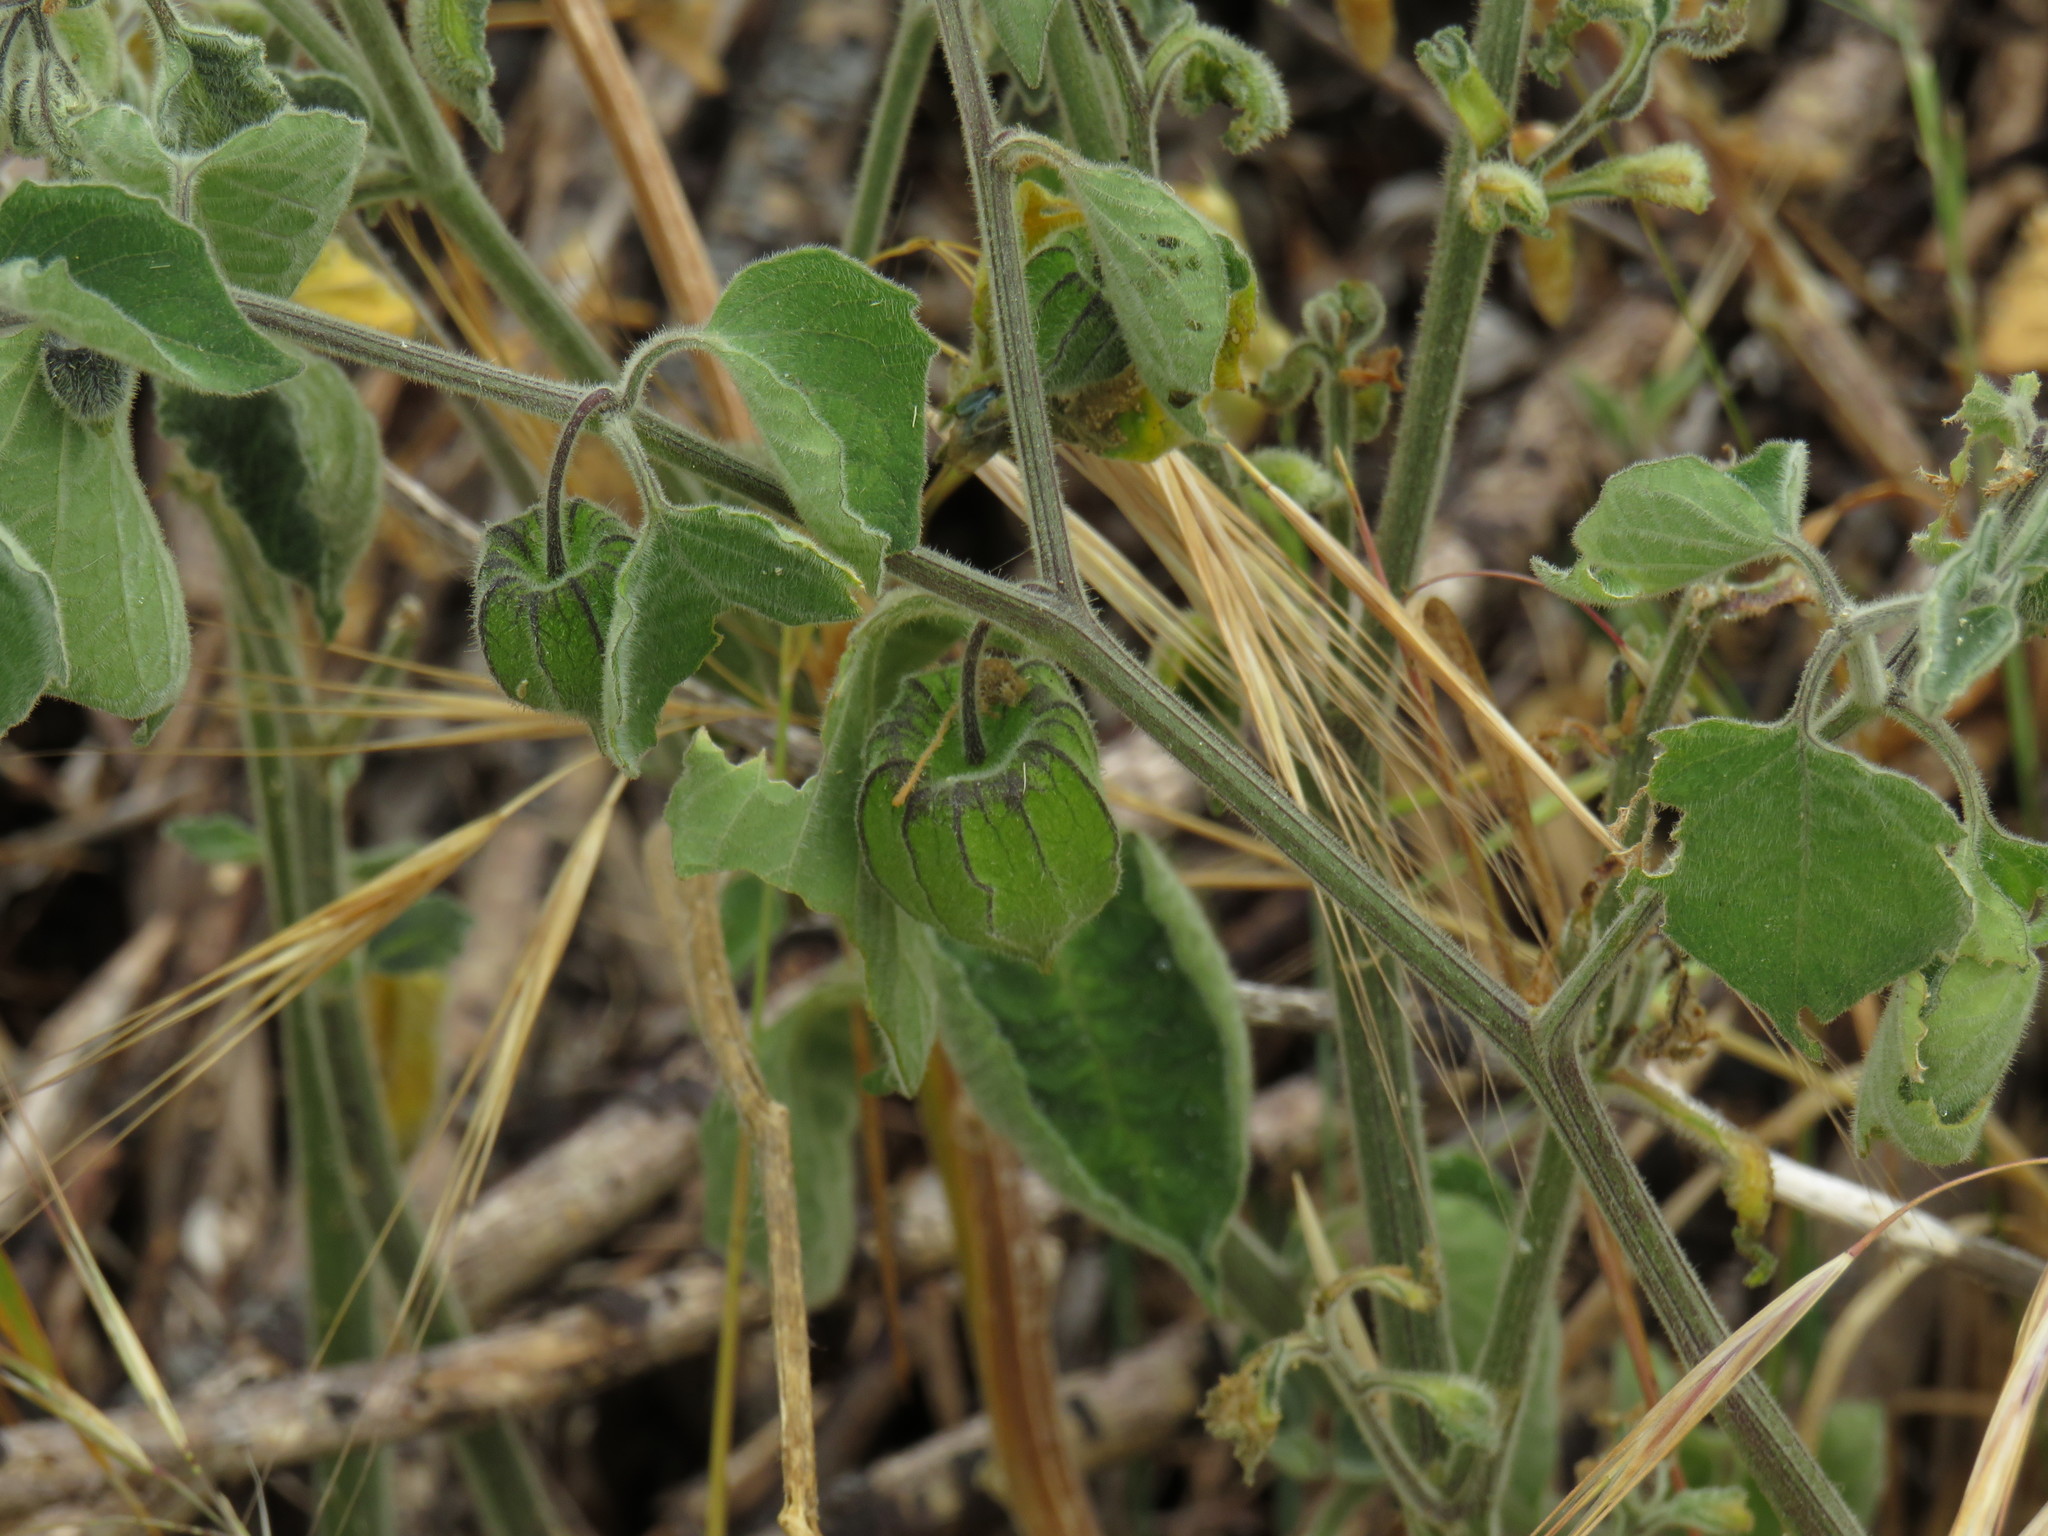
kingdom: Plantae
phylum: Tracheophyta
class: Magnoliopsida
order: Solanales
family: Solanaceae
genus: Physalis
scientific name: Physalis peruviana
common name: Cape-gooseberry
